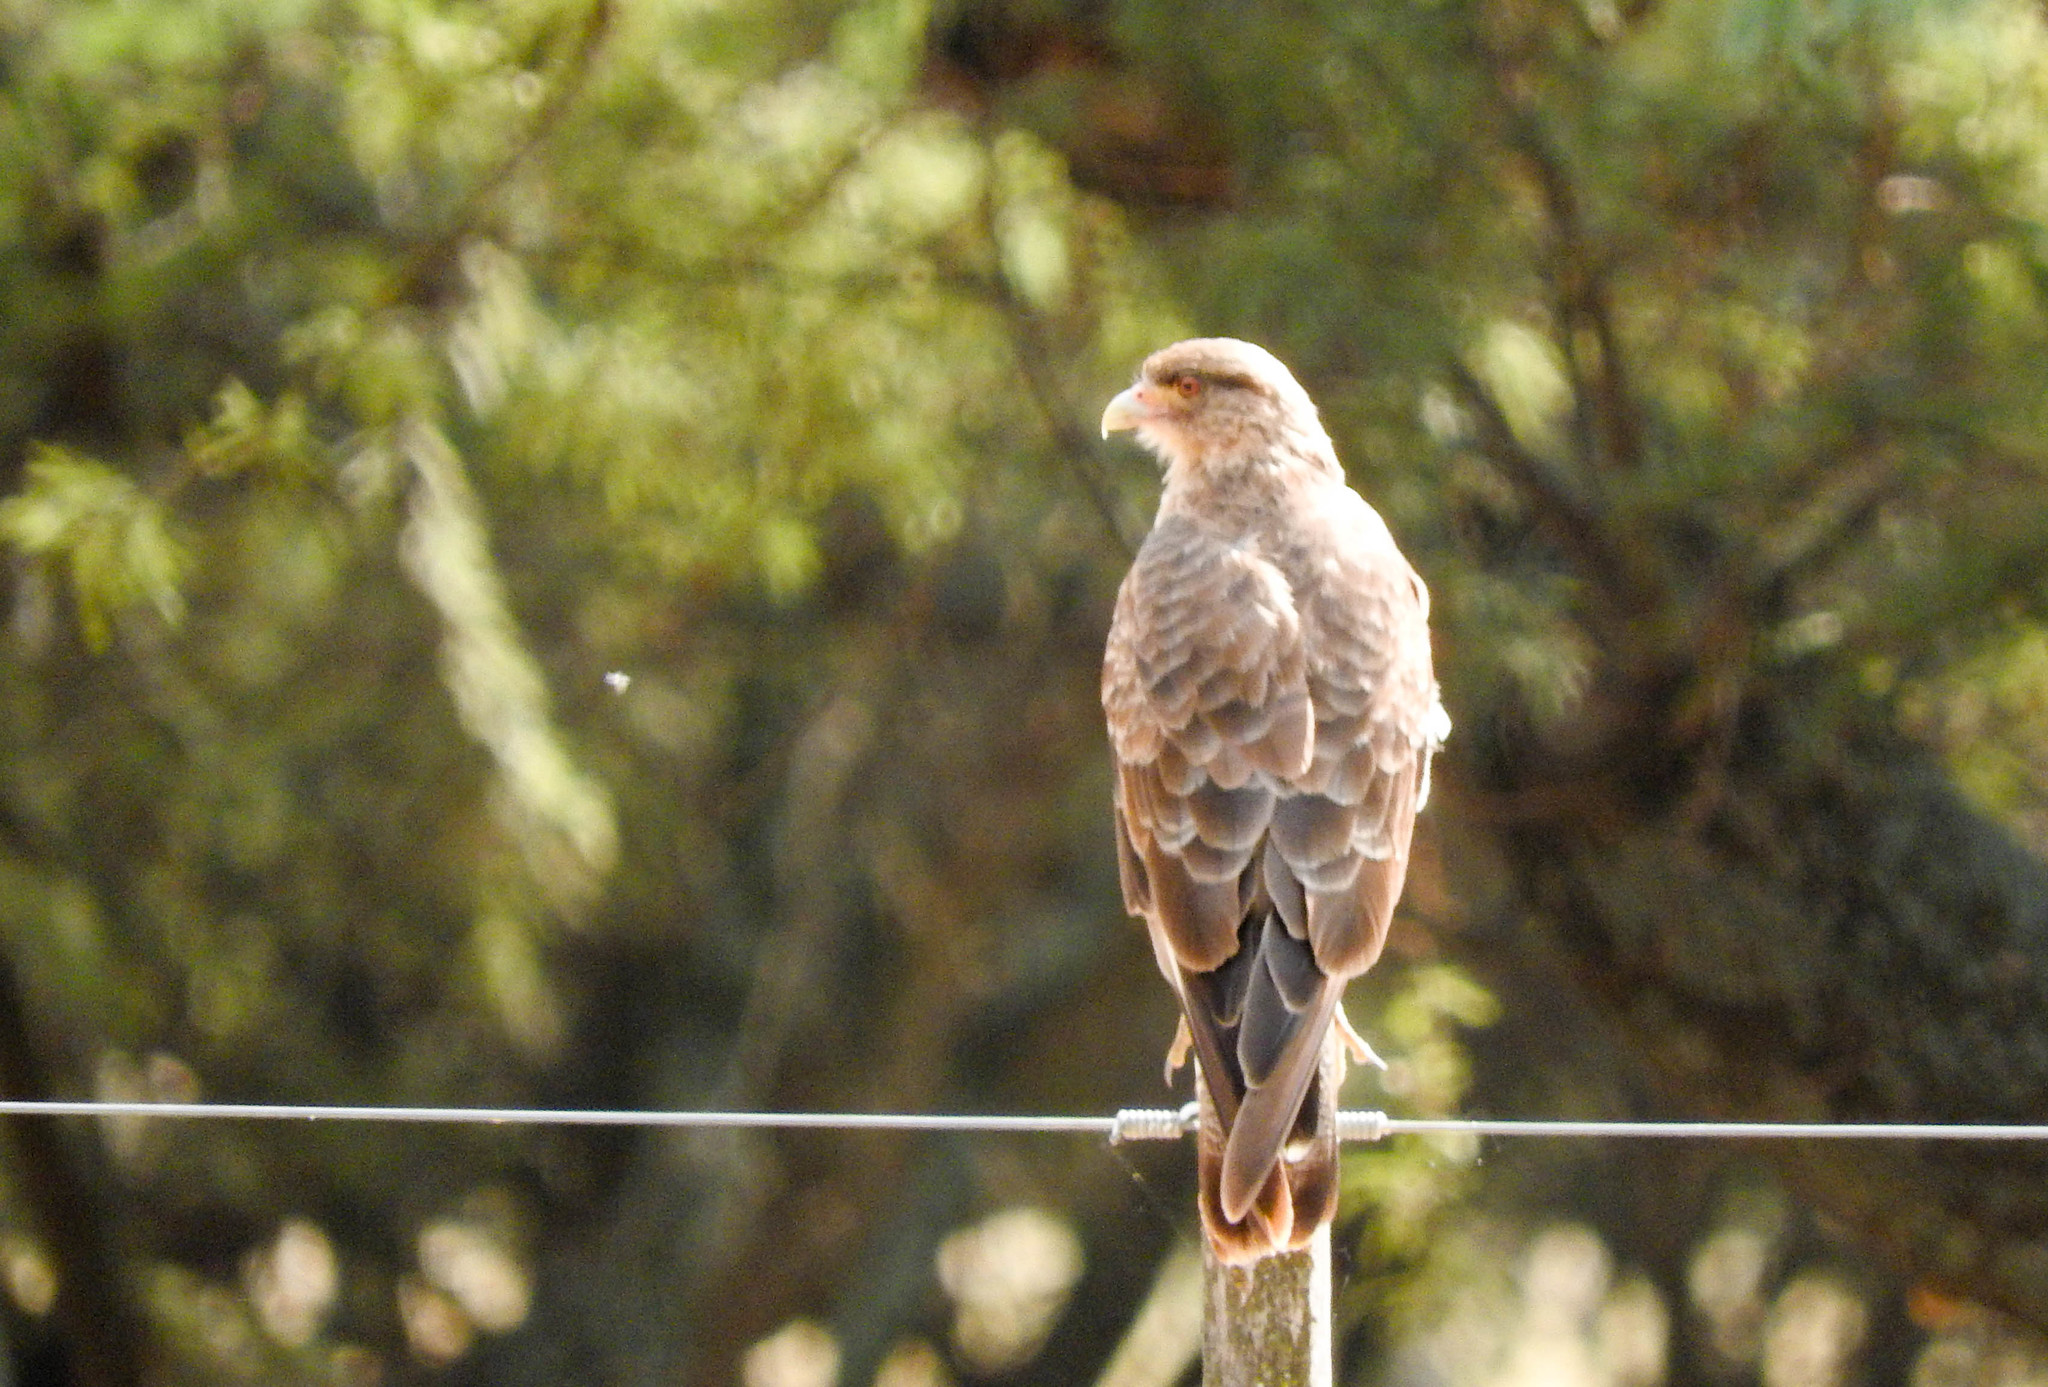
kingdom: Animalia
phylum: Chordata
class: Aves
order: Falconiformes
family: Falconidae
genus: Daptrius
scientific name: Daptrius
